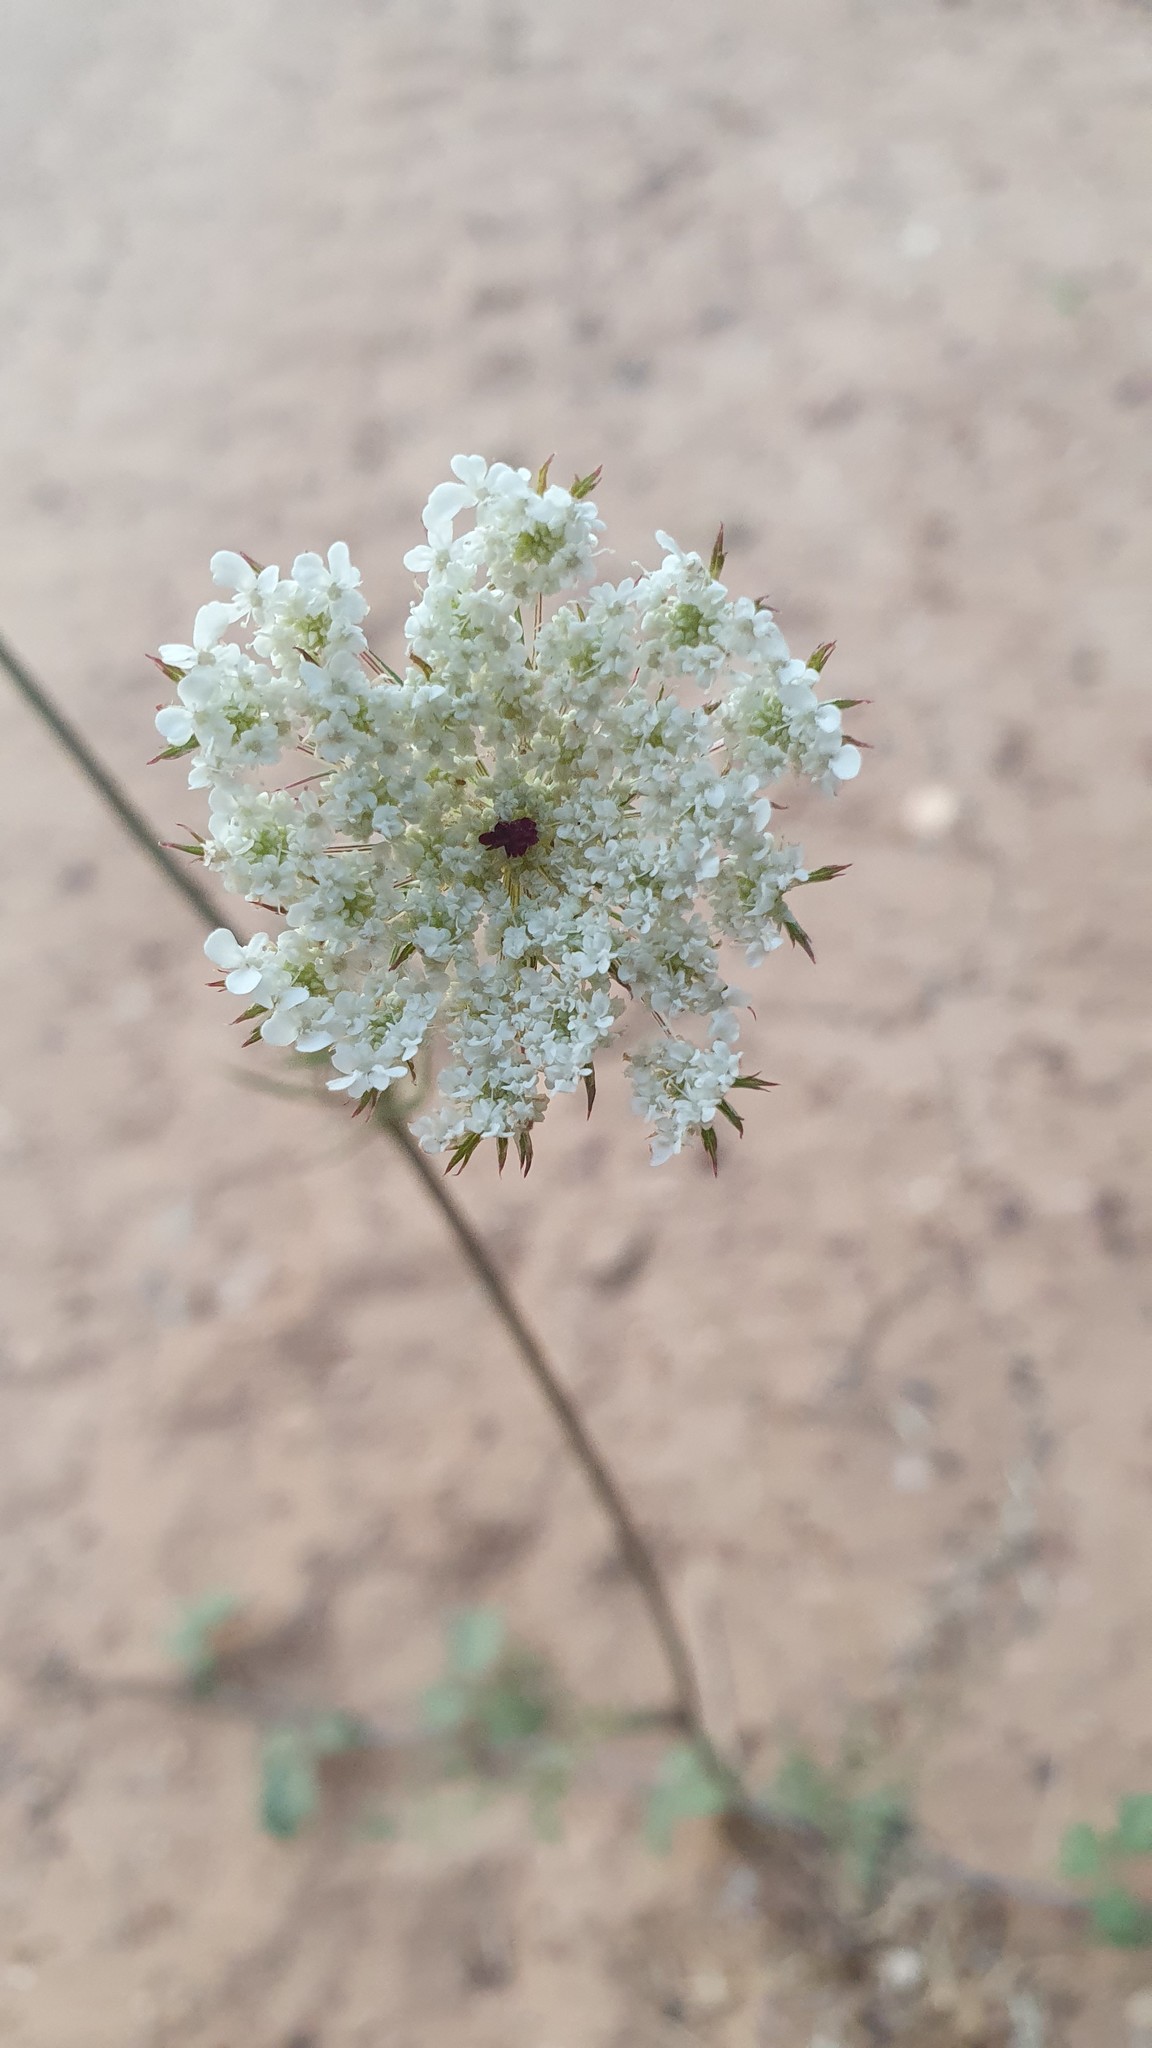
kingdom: Plantae
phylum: Tracheophyta
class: Magnoliopsida
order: Apiales
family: Apiaceae
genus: Daucus
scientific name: Daucus carota
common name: Wild carrot
